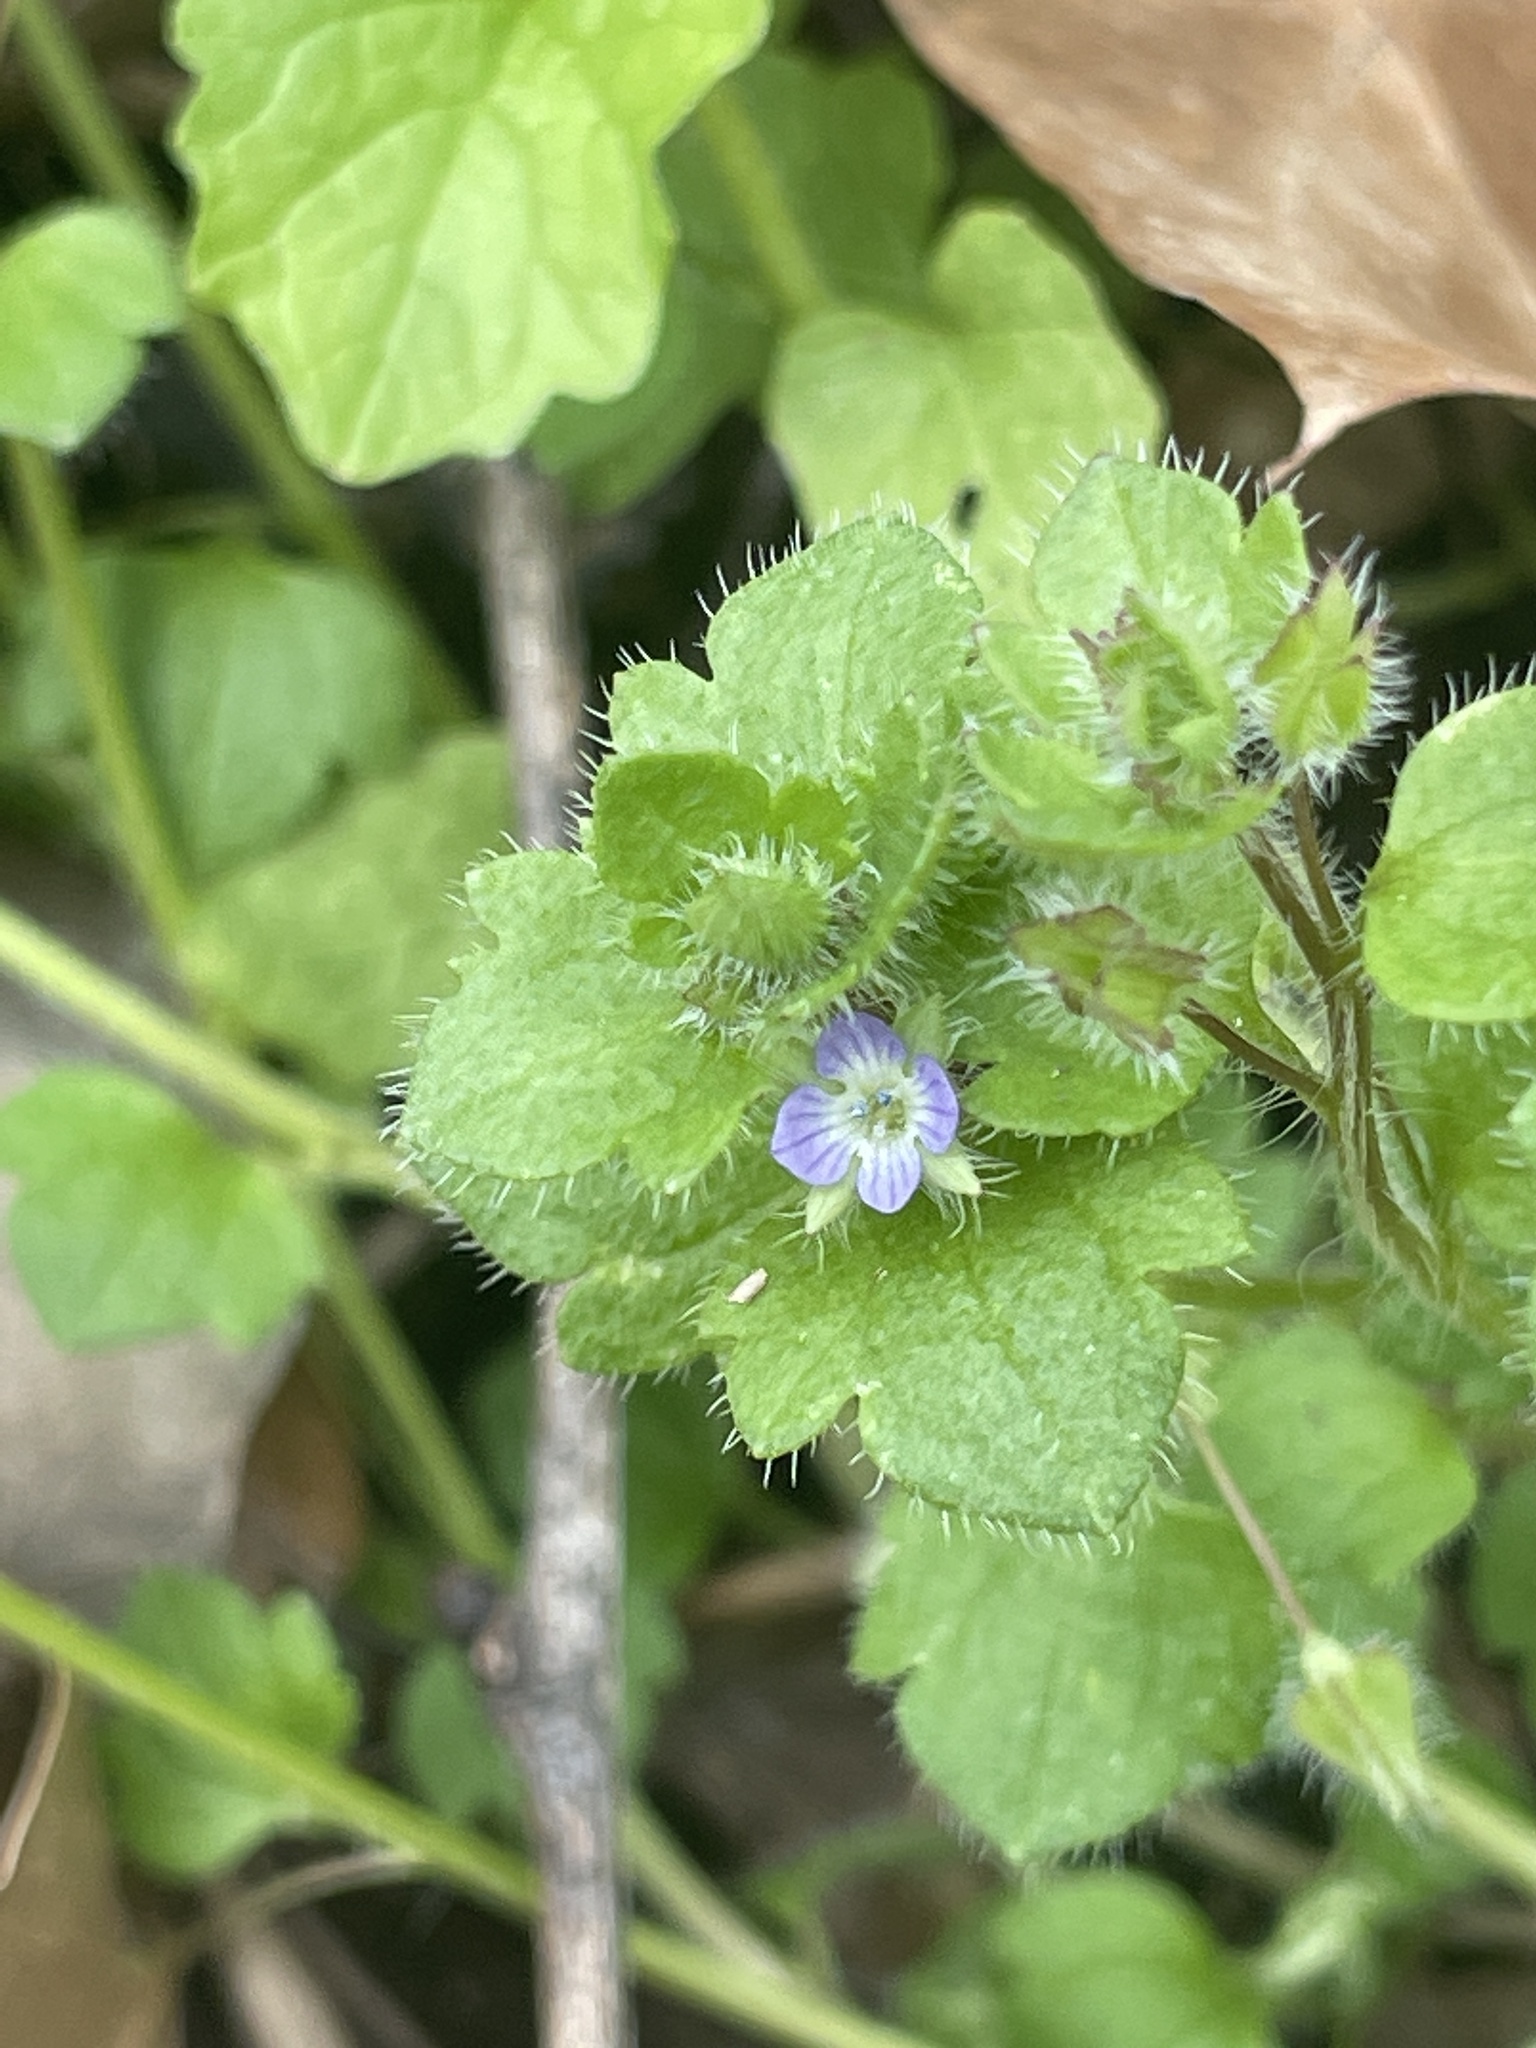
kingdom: Plantae
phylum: Tracheophyta
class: Magnoliopsida
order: Lamiales
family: Plantaginaceae
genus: Veronica
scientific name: Veronica hederifolia
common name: Ivy-leaved speedwell
